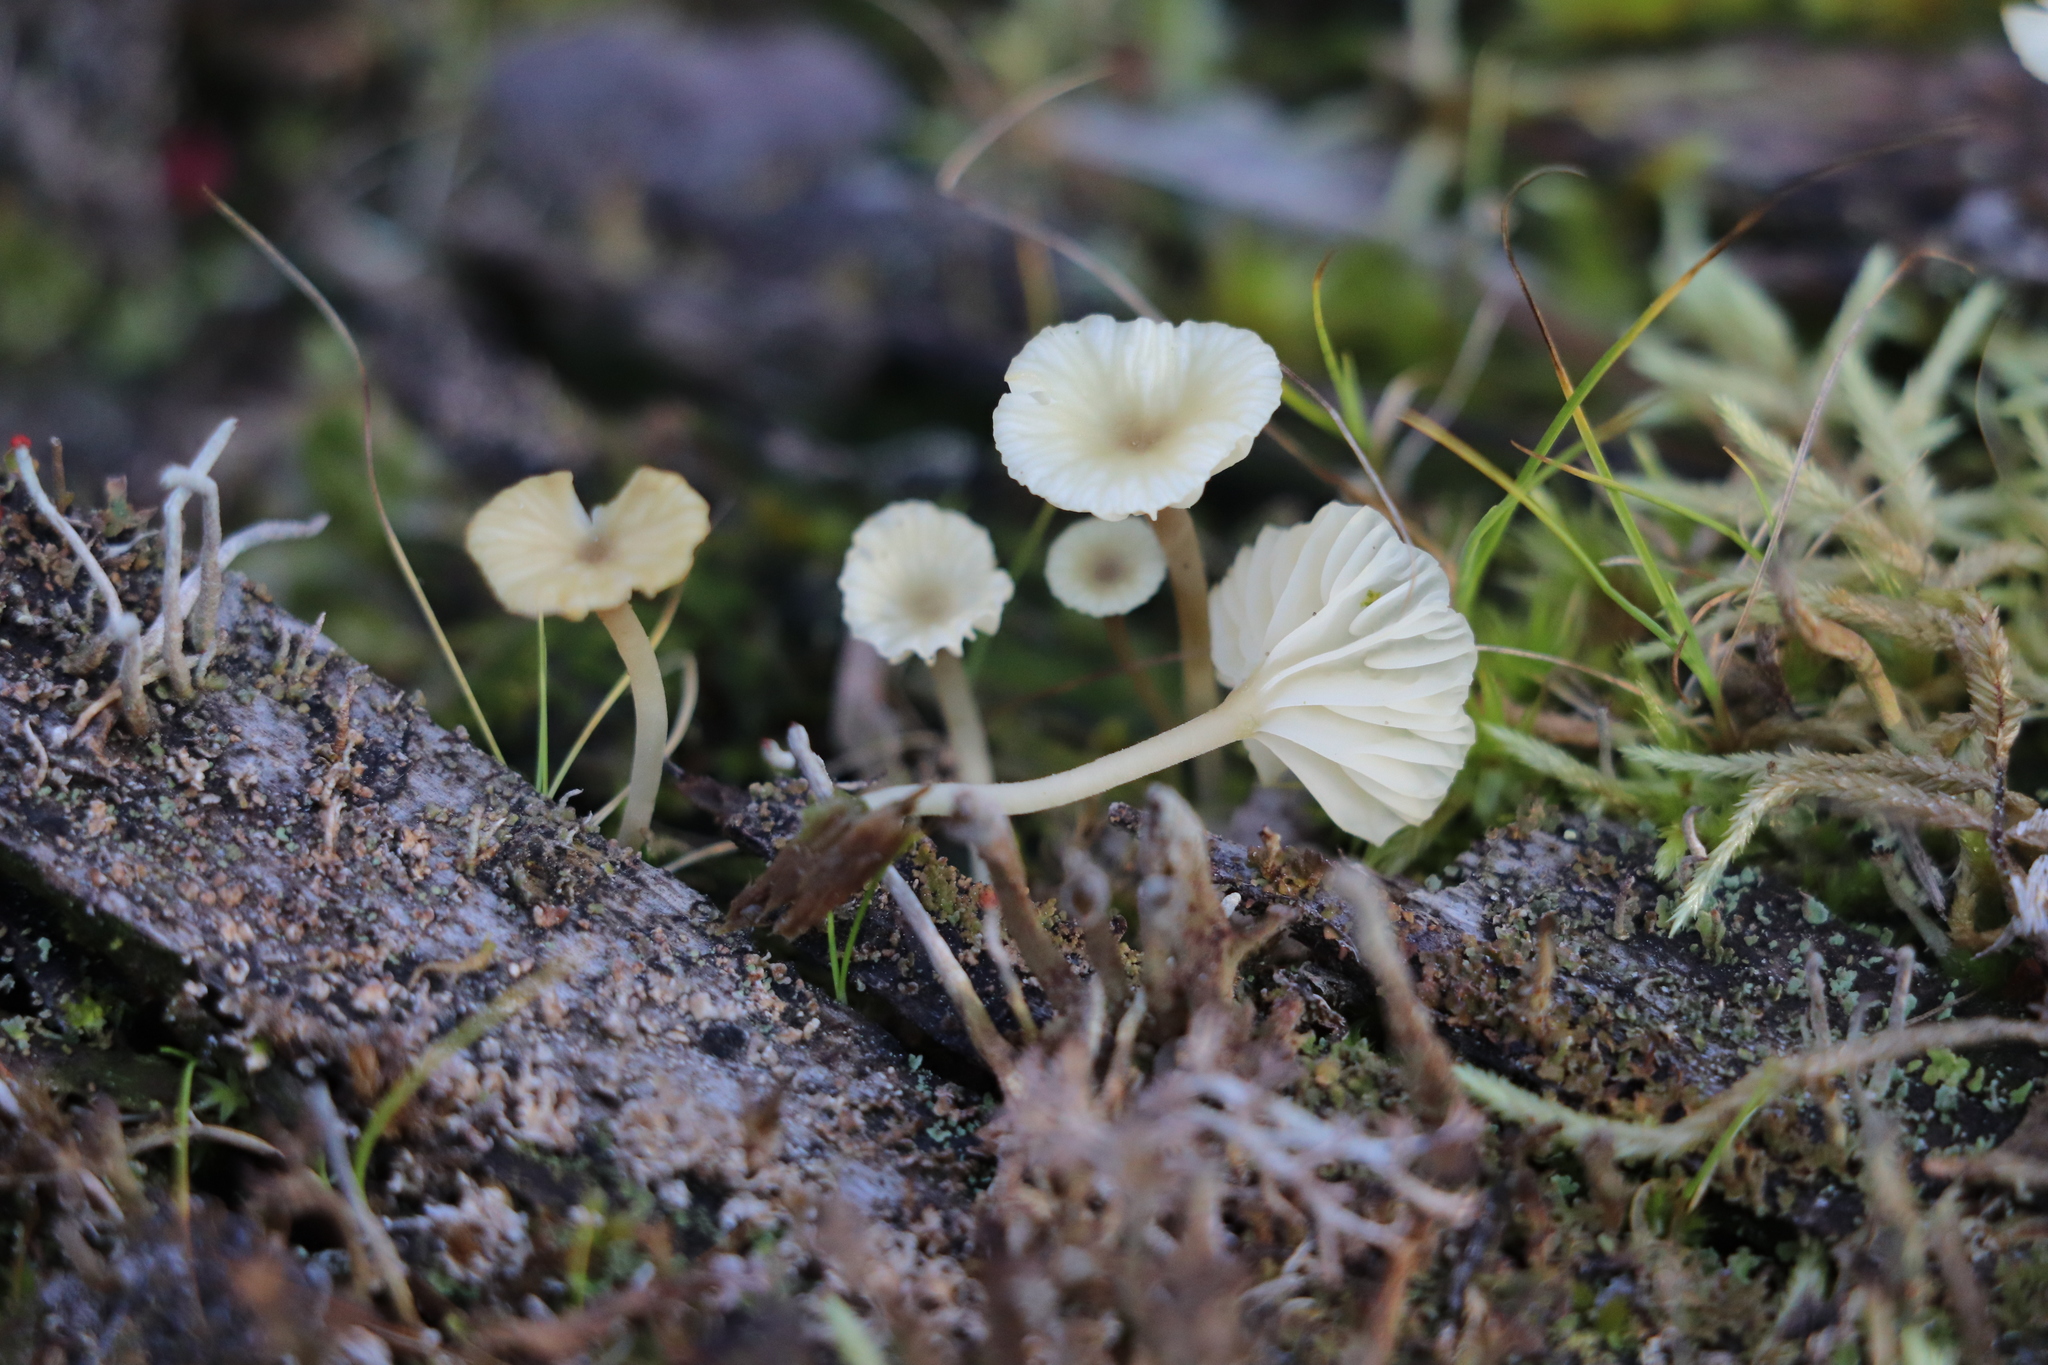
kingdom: Fungi
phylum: Basidiomycota
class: Agaricomycetes
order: Agaricales
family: Hygrophoraceae
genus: Lichenomphalia
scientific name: Lichenomphalia
